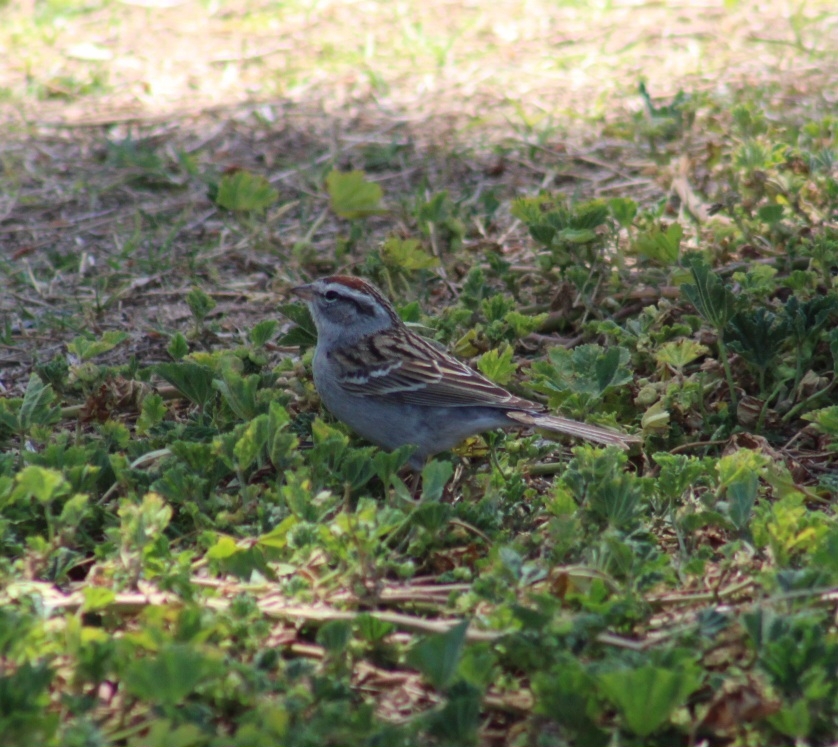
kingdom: Animalia
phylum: Chordata
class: Aves
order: Passeriformes
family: Passerellidae
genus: Spizella
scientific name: Spizella passerina
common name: Chipping sparrow
